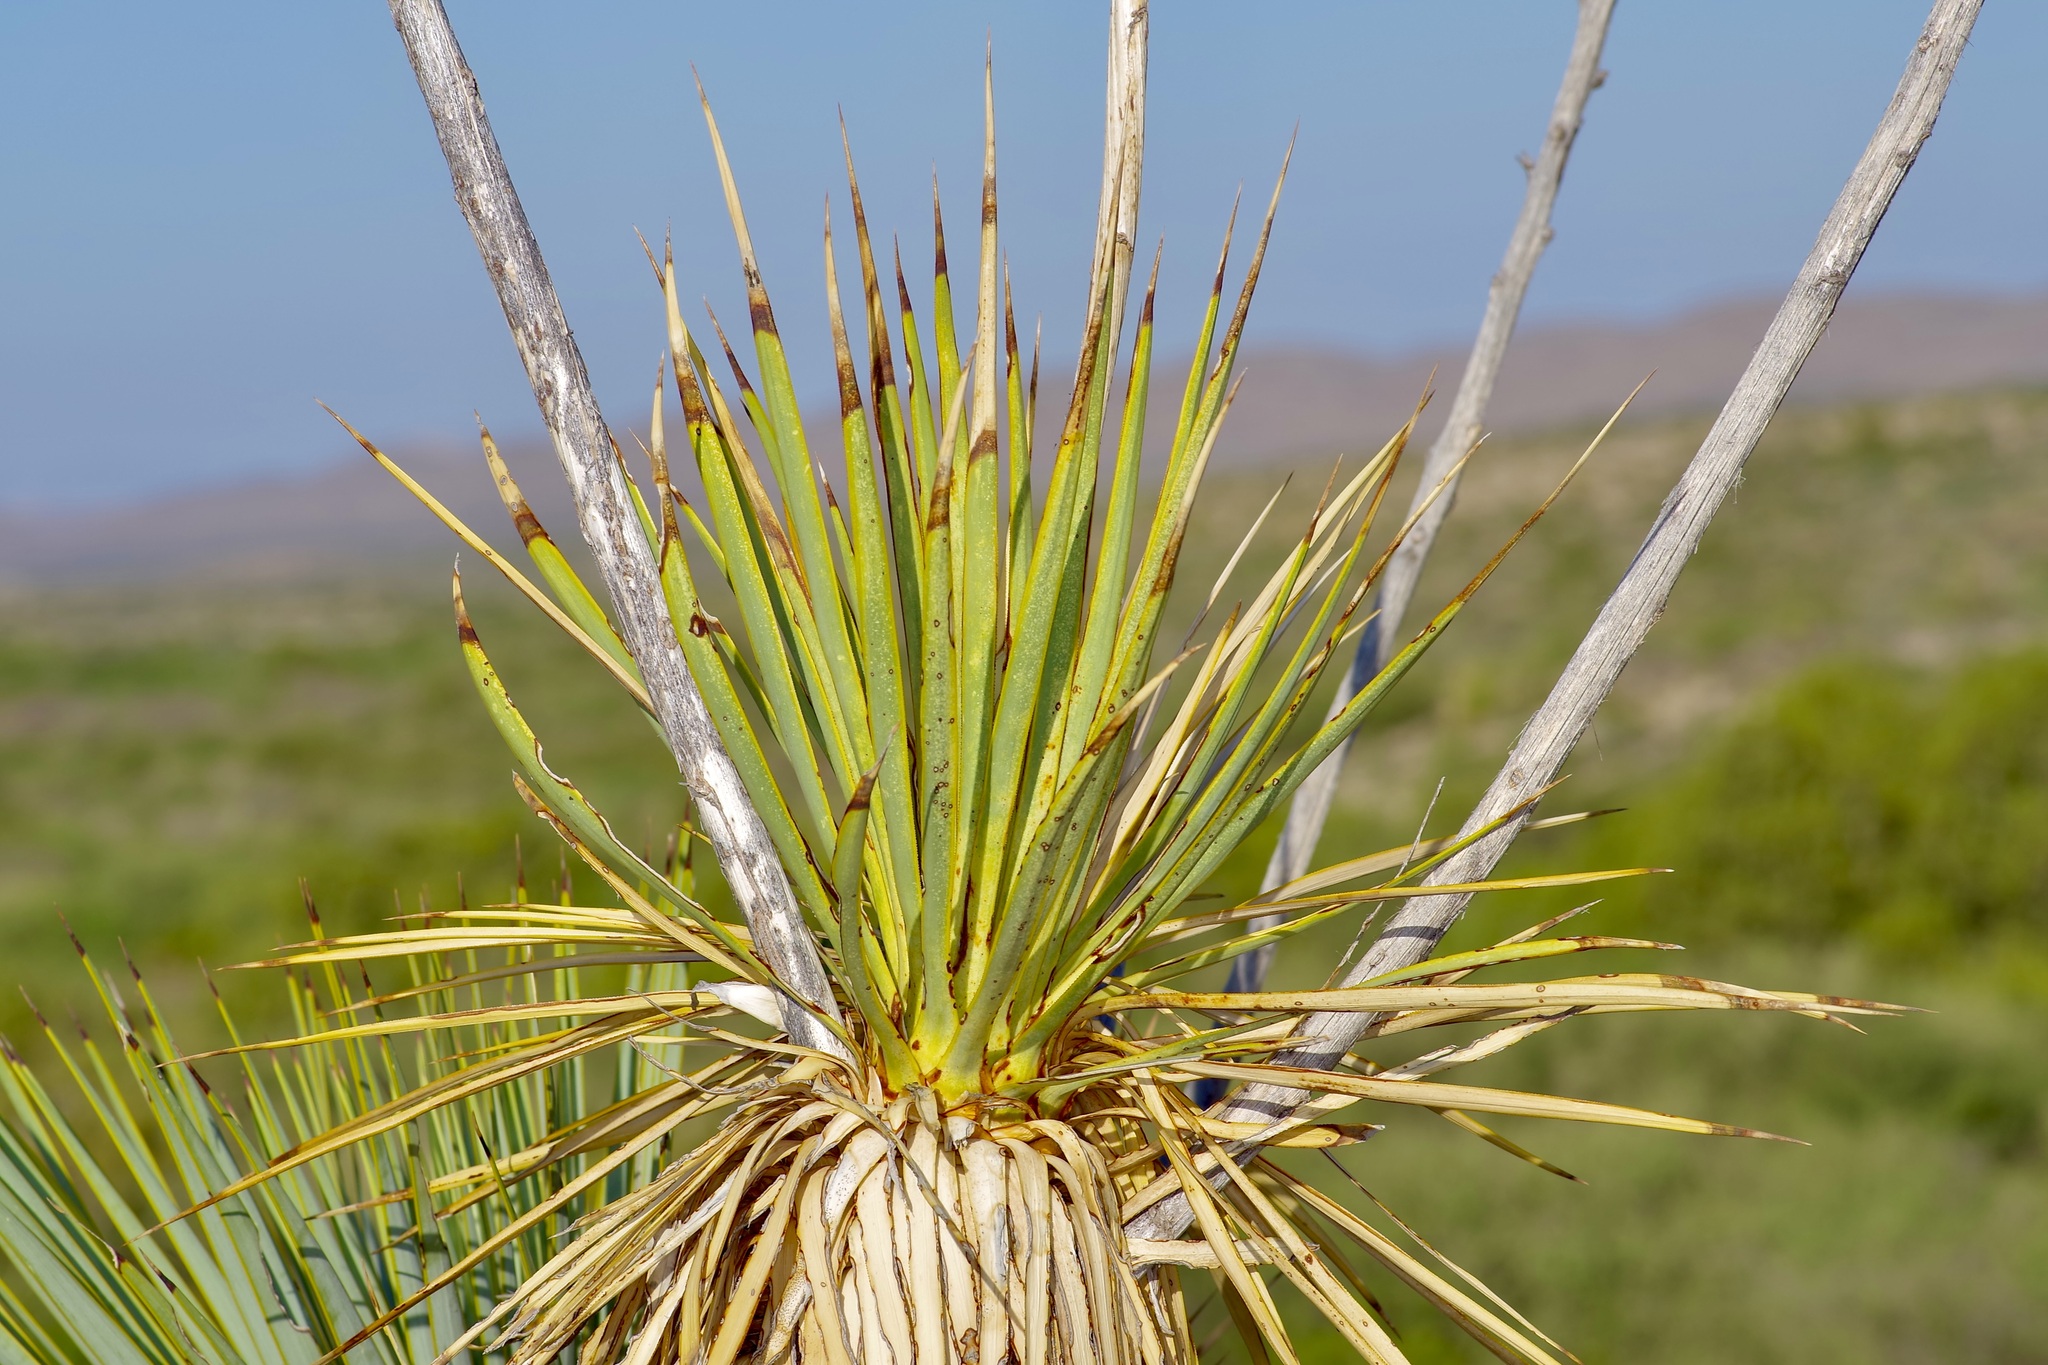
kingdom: Plantae
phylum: Tracheophyta
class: Liliopsida
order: Asparagales
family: Asparagaceae
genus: Yucca
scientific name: Yucca thompsoniana
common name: Trans-pecos yucca
